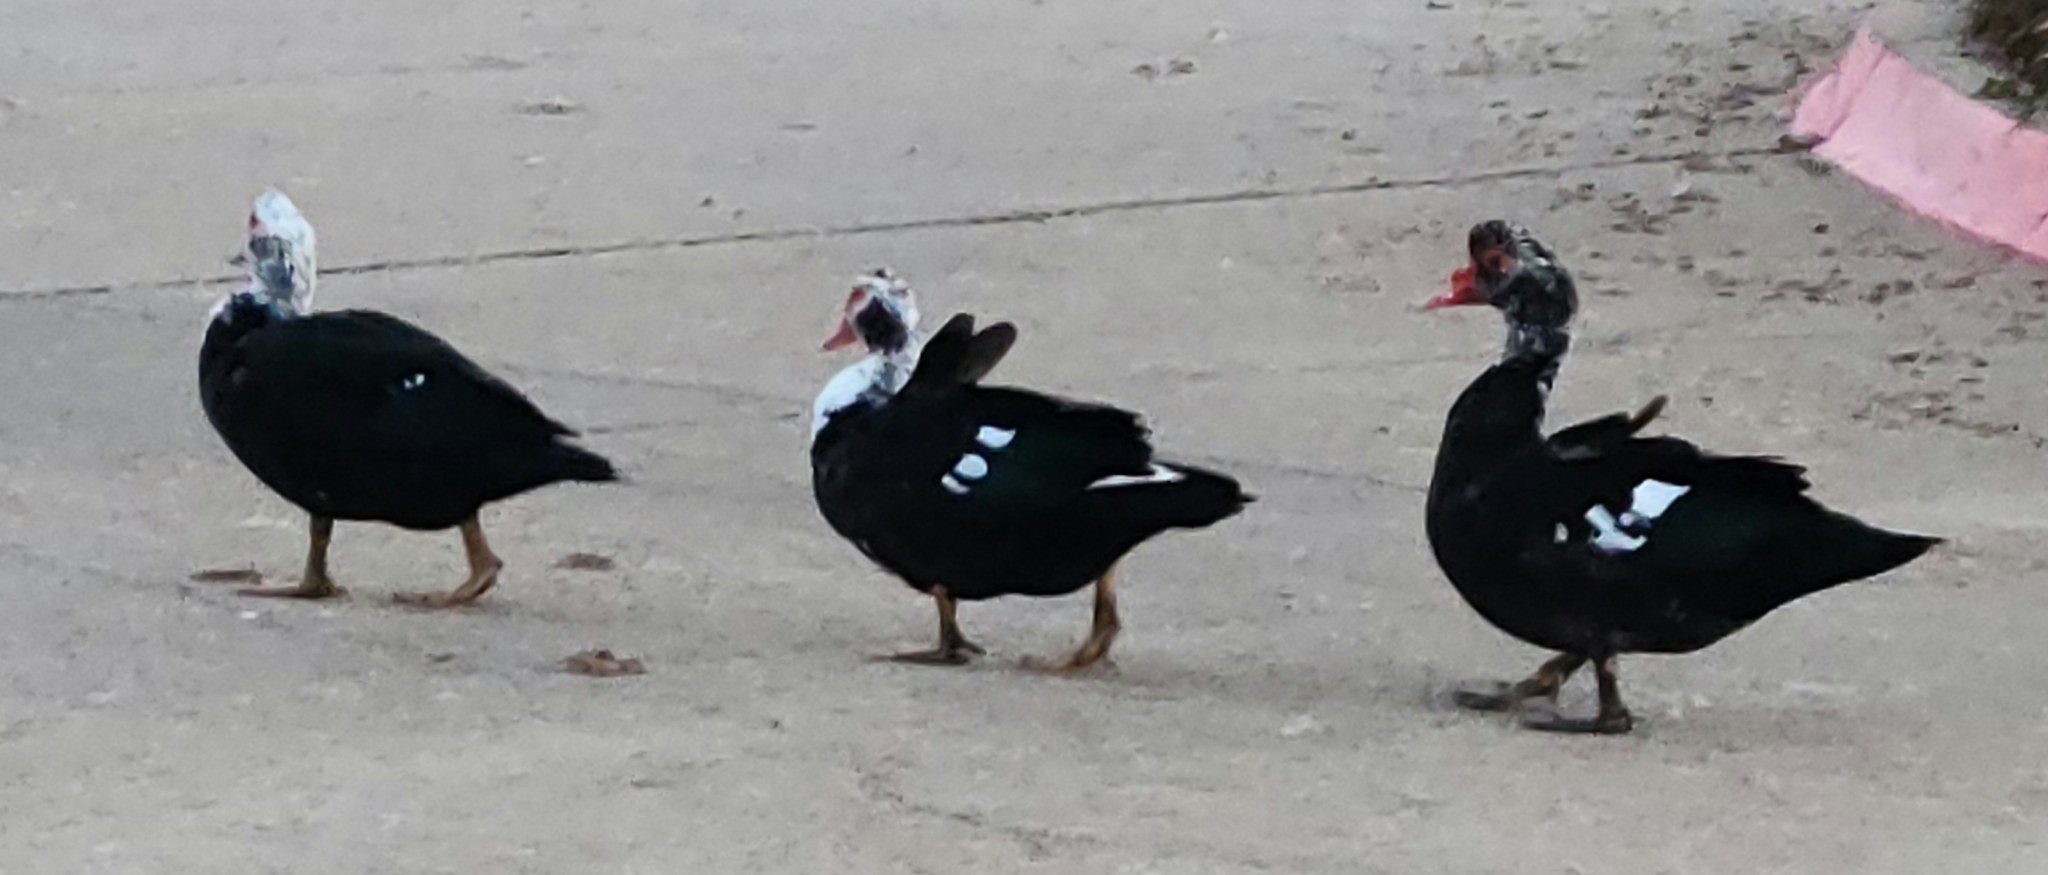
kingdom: Animalia
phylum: Chordata
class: Aves
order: Anseriformes
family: Anatidae
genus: Cairina
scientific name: Cairina moschata
